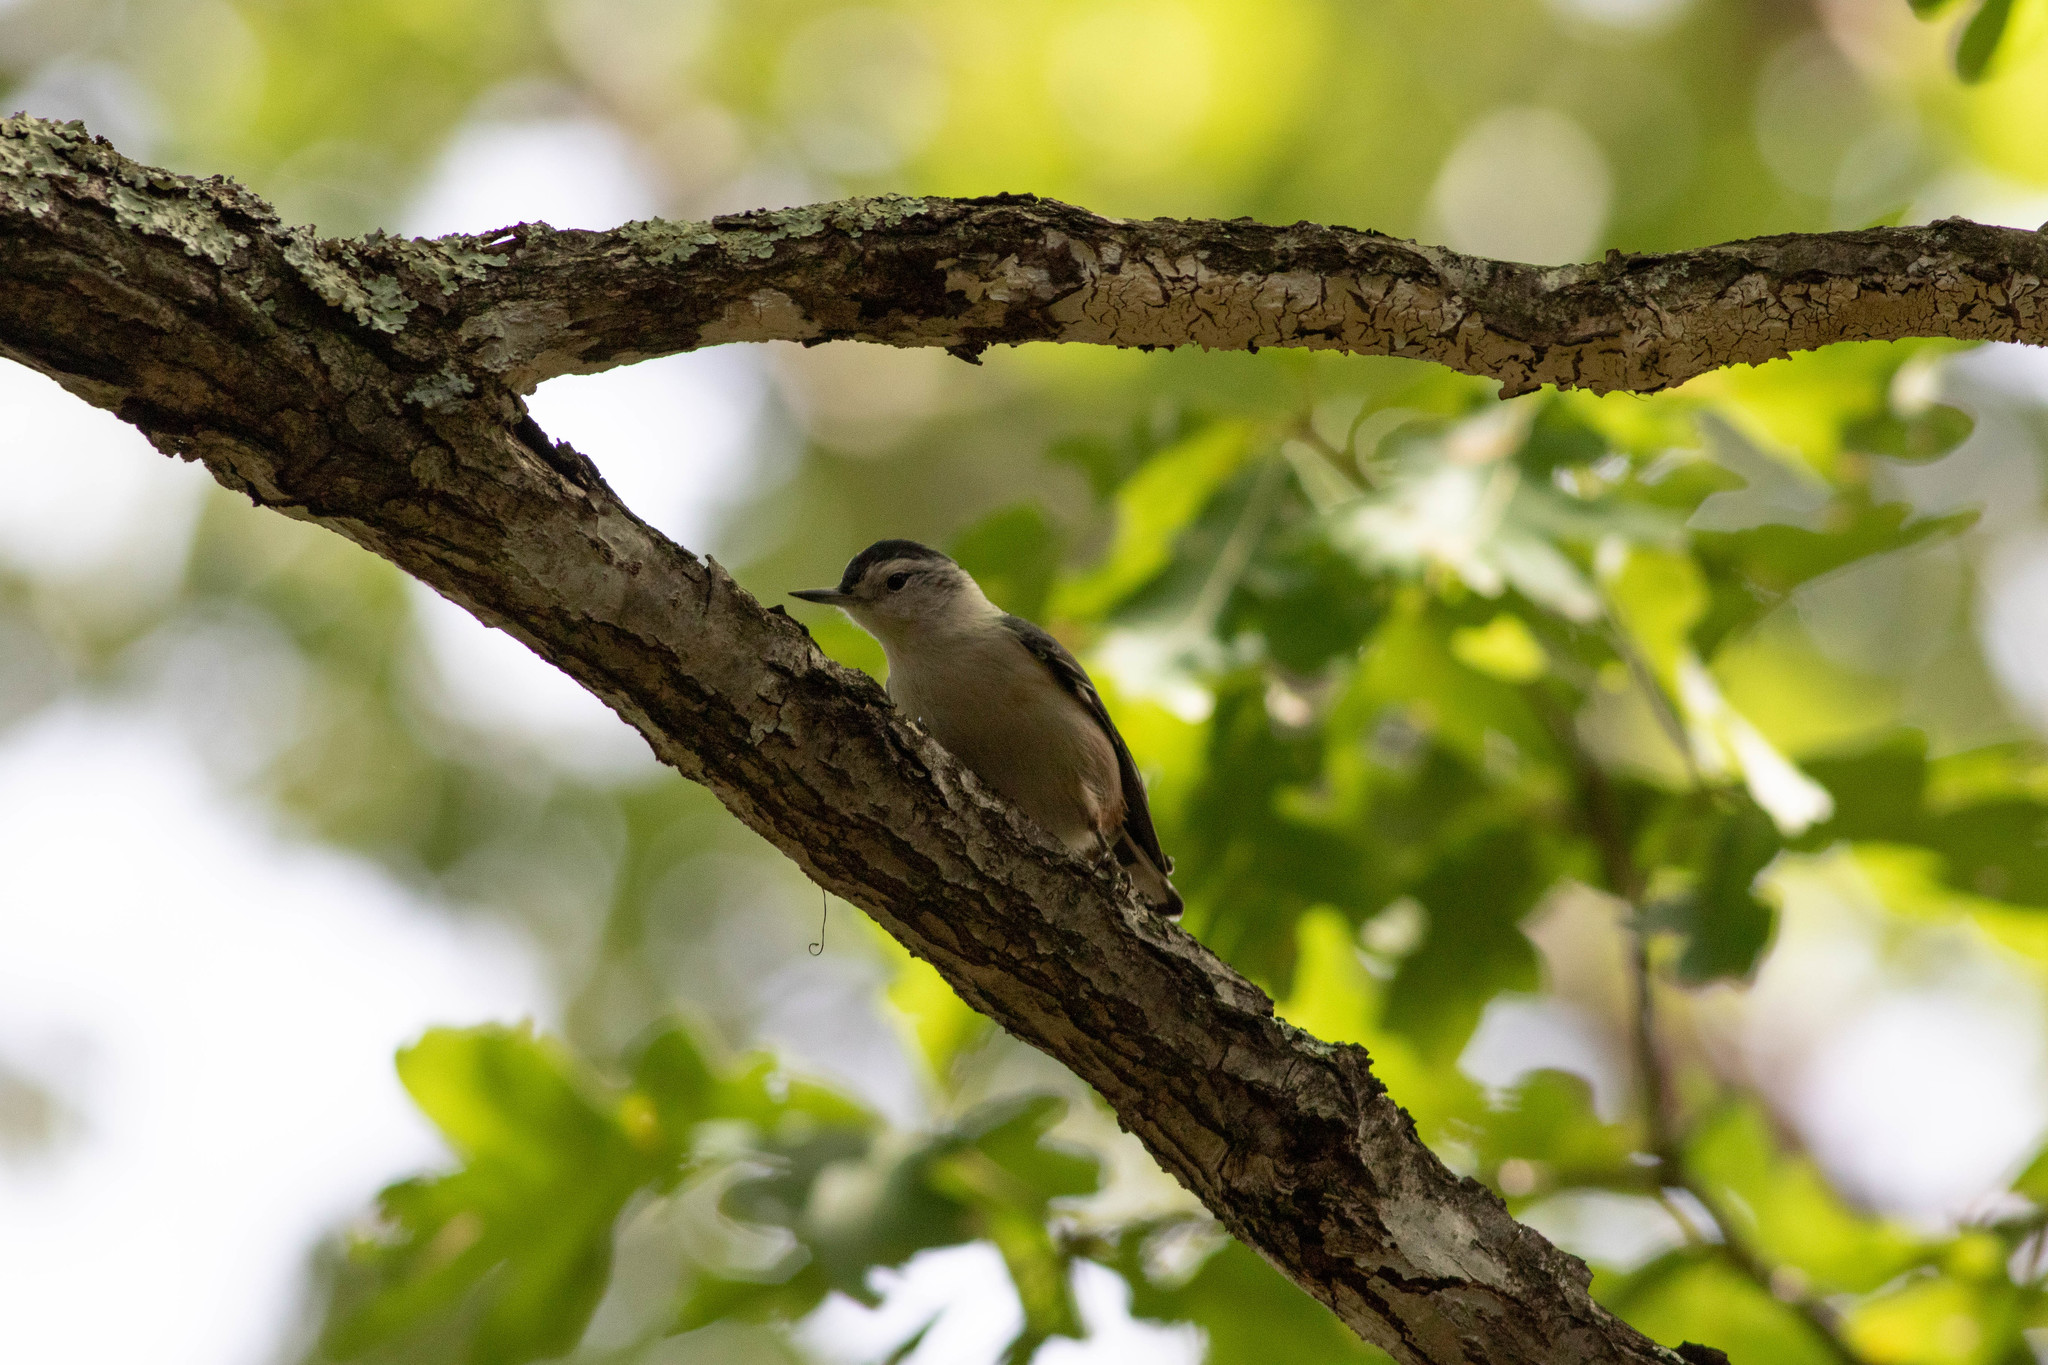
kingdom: Animalia
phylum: Chordata
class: Aves
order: Passeriformes
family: Sittidae
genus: Sitta
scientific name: Sitta carolinensis
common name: White-breasted nuthatch
